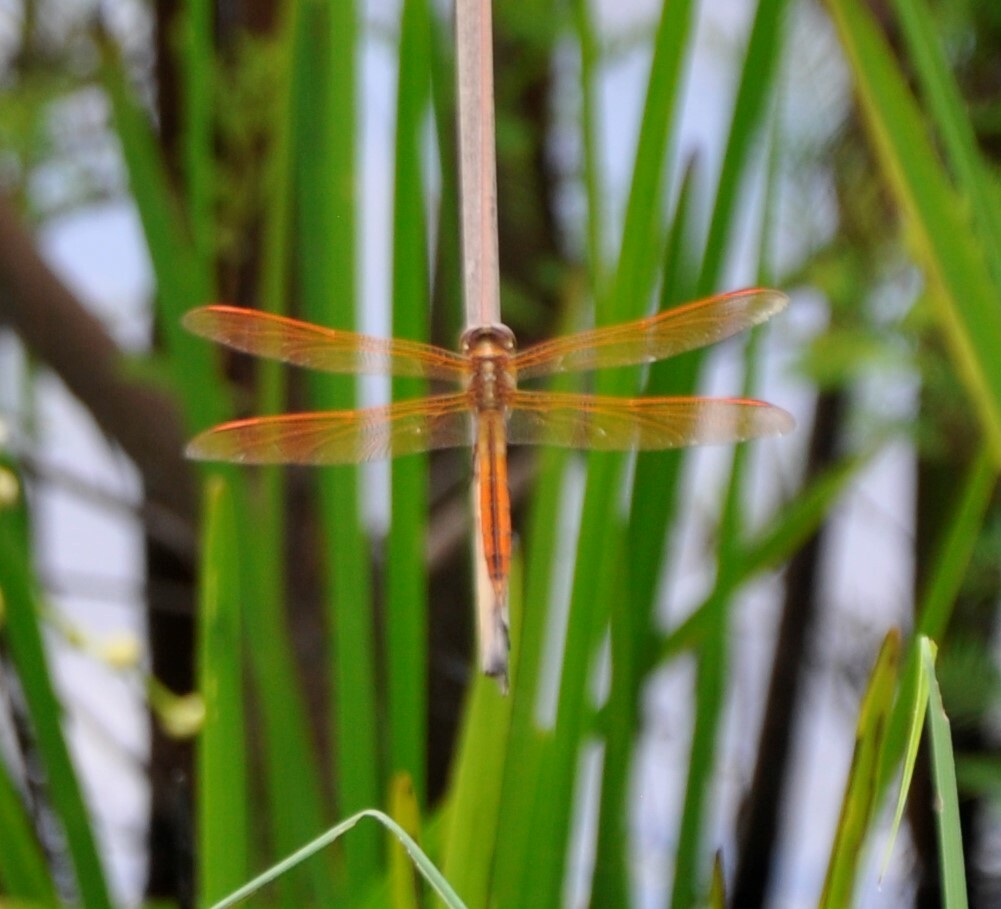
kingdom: Animalia
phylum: Arthropoda
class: Insecta
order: Odonata
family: Libellulidae
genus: Libellula
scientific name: Libellula auripennis
